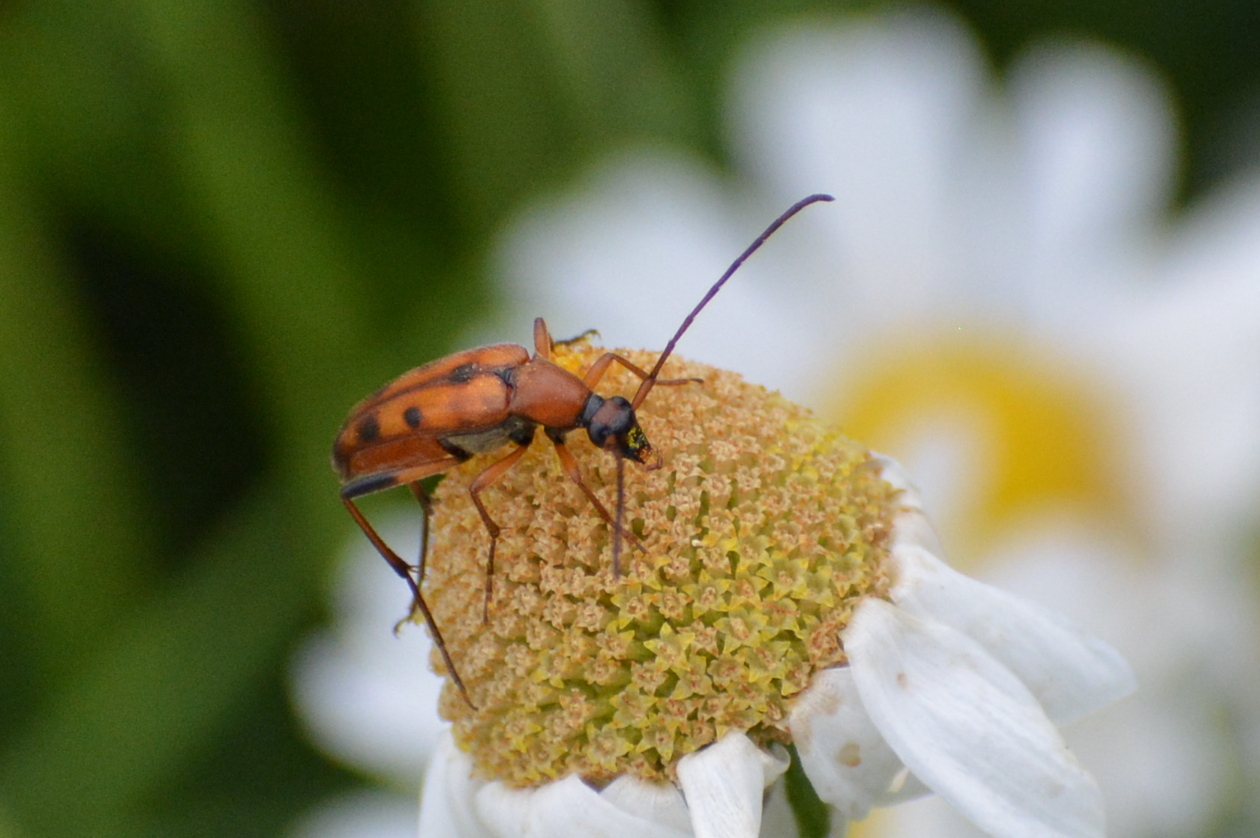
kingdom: Animalia
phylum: Arthropoda
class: Insecta
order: Coleoptera
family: Cerambycidae
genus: Stenurella
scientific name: Stenurella septempunctata
